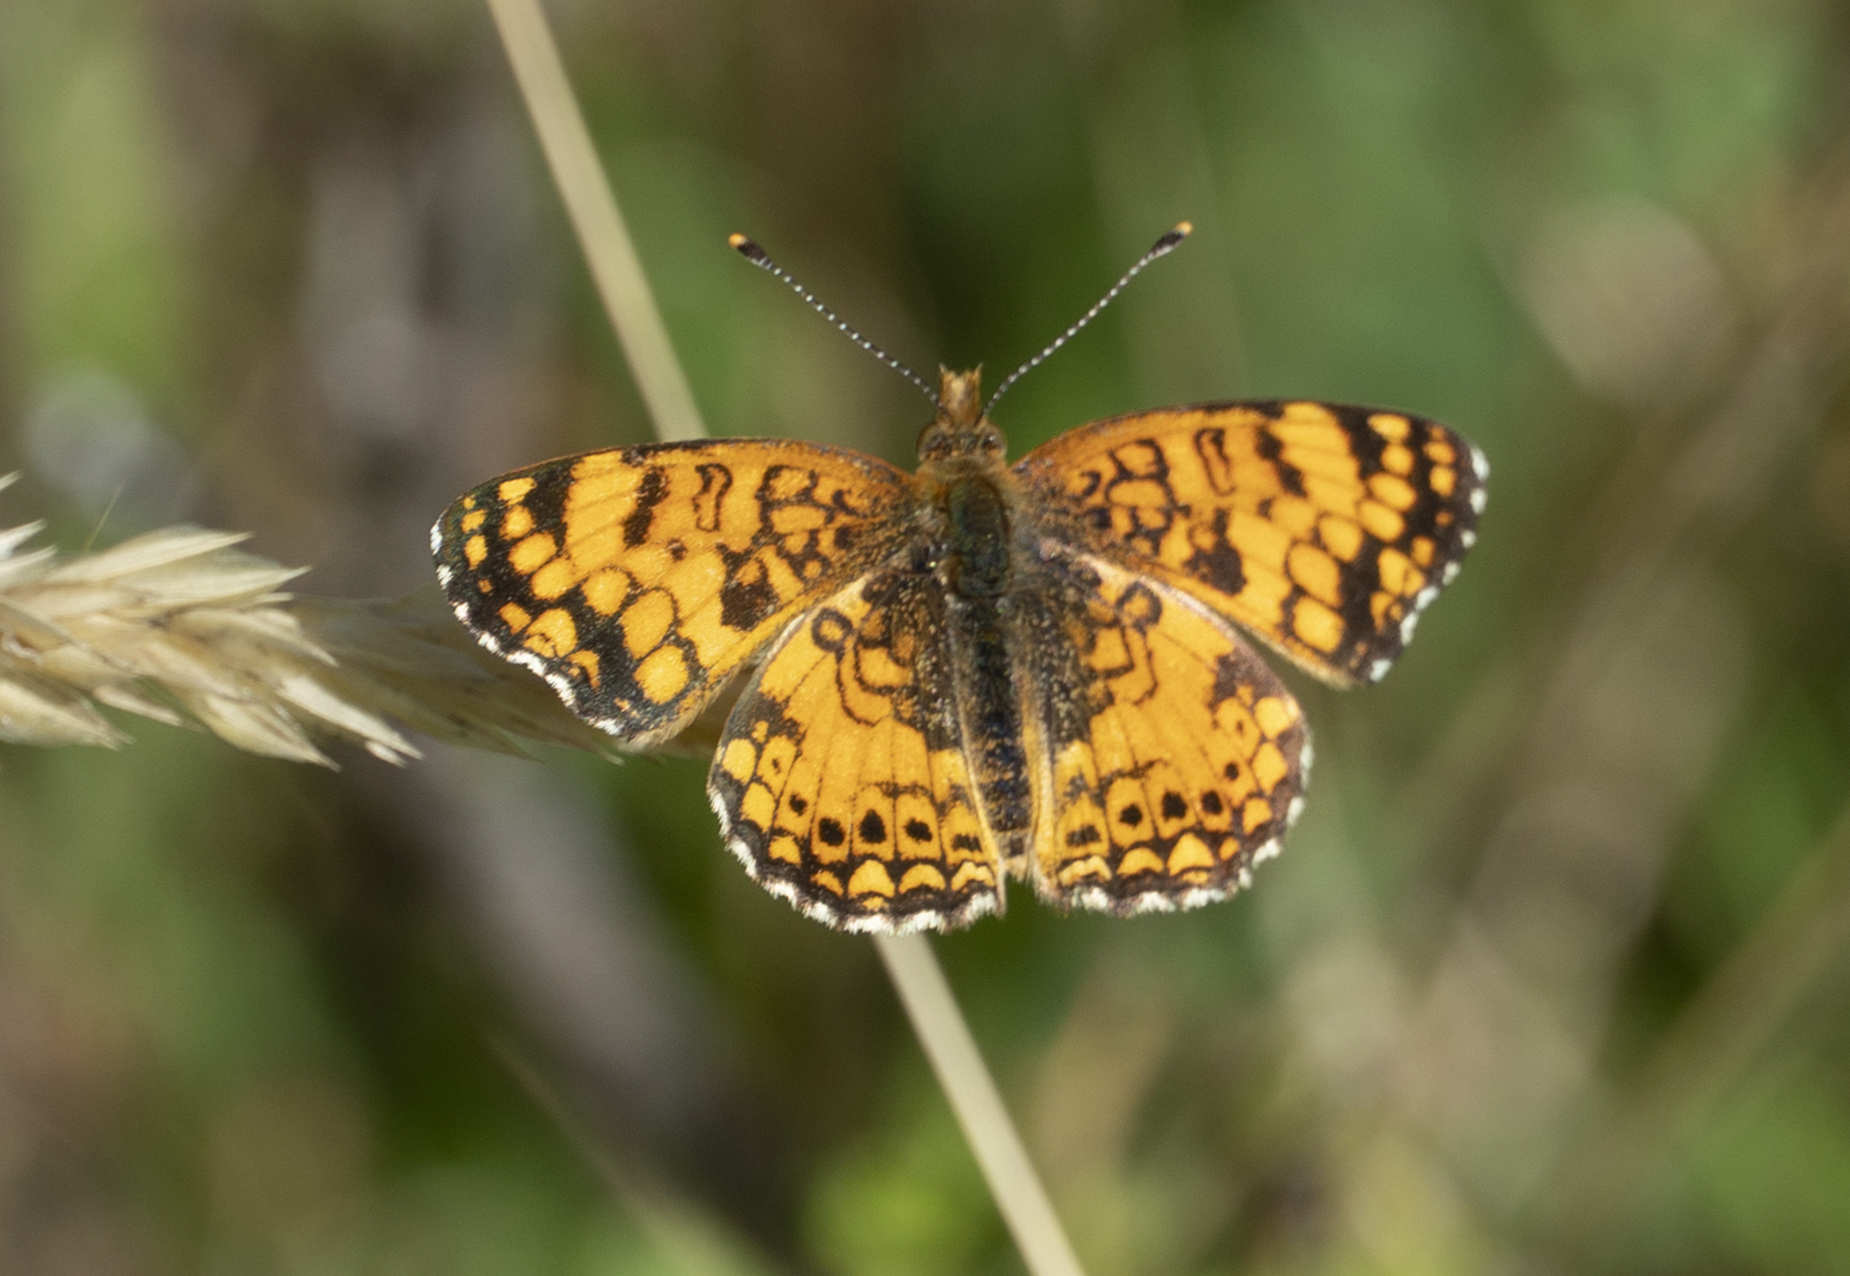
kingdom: Animalia
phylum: Arthropoda
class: Insecta
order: Lepidoptera
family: Nymphalidae
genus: Eresia
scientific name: Eresia aveyrona
